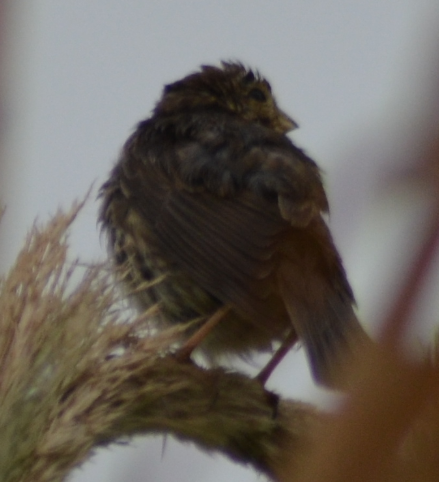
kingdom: Animalia
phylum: Chordata
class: Aves
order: Passeriformes
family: Emberizidae
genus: Emberiza
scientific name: Emberiza calandra
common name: Corn bunting
